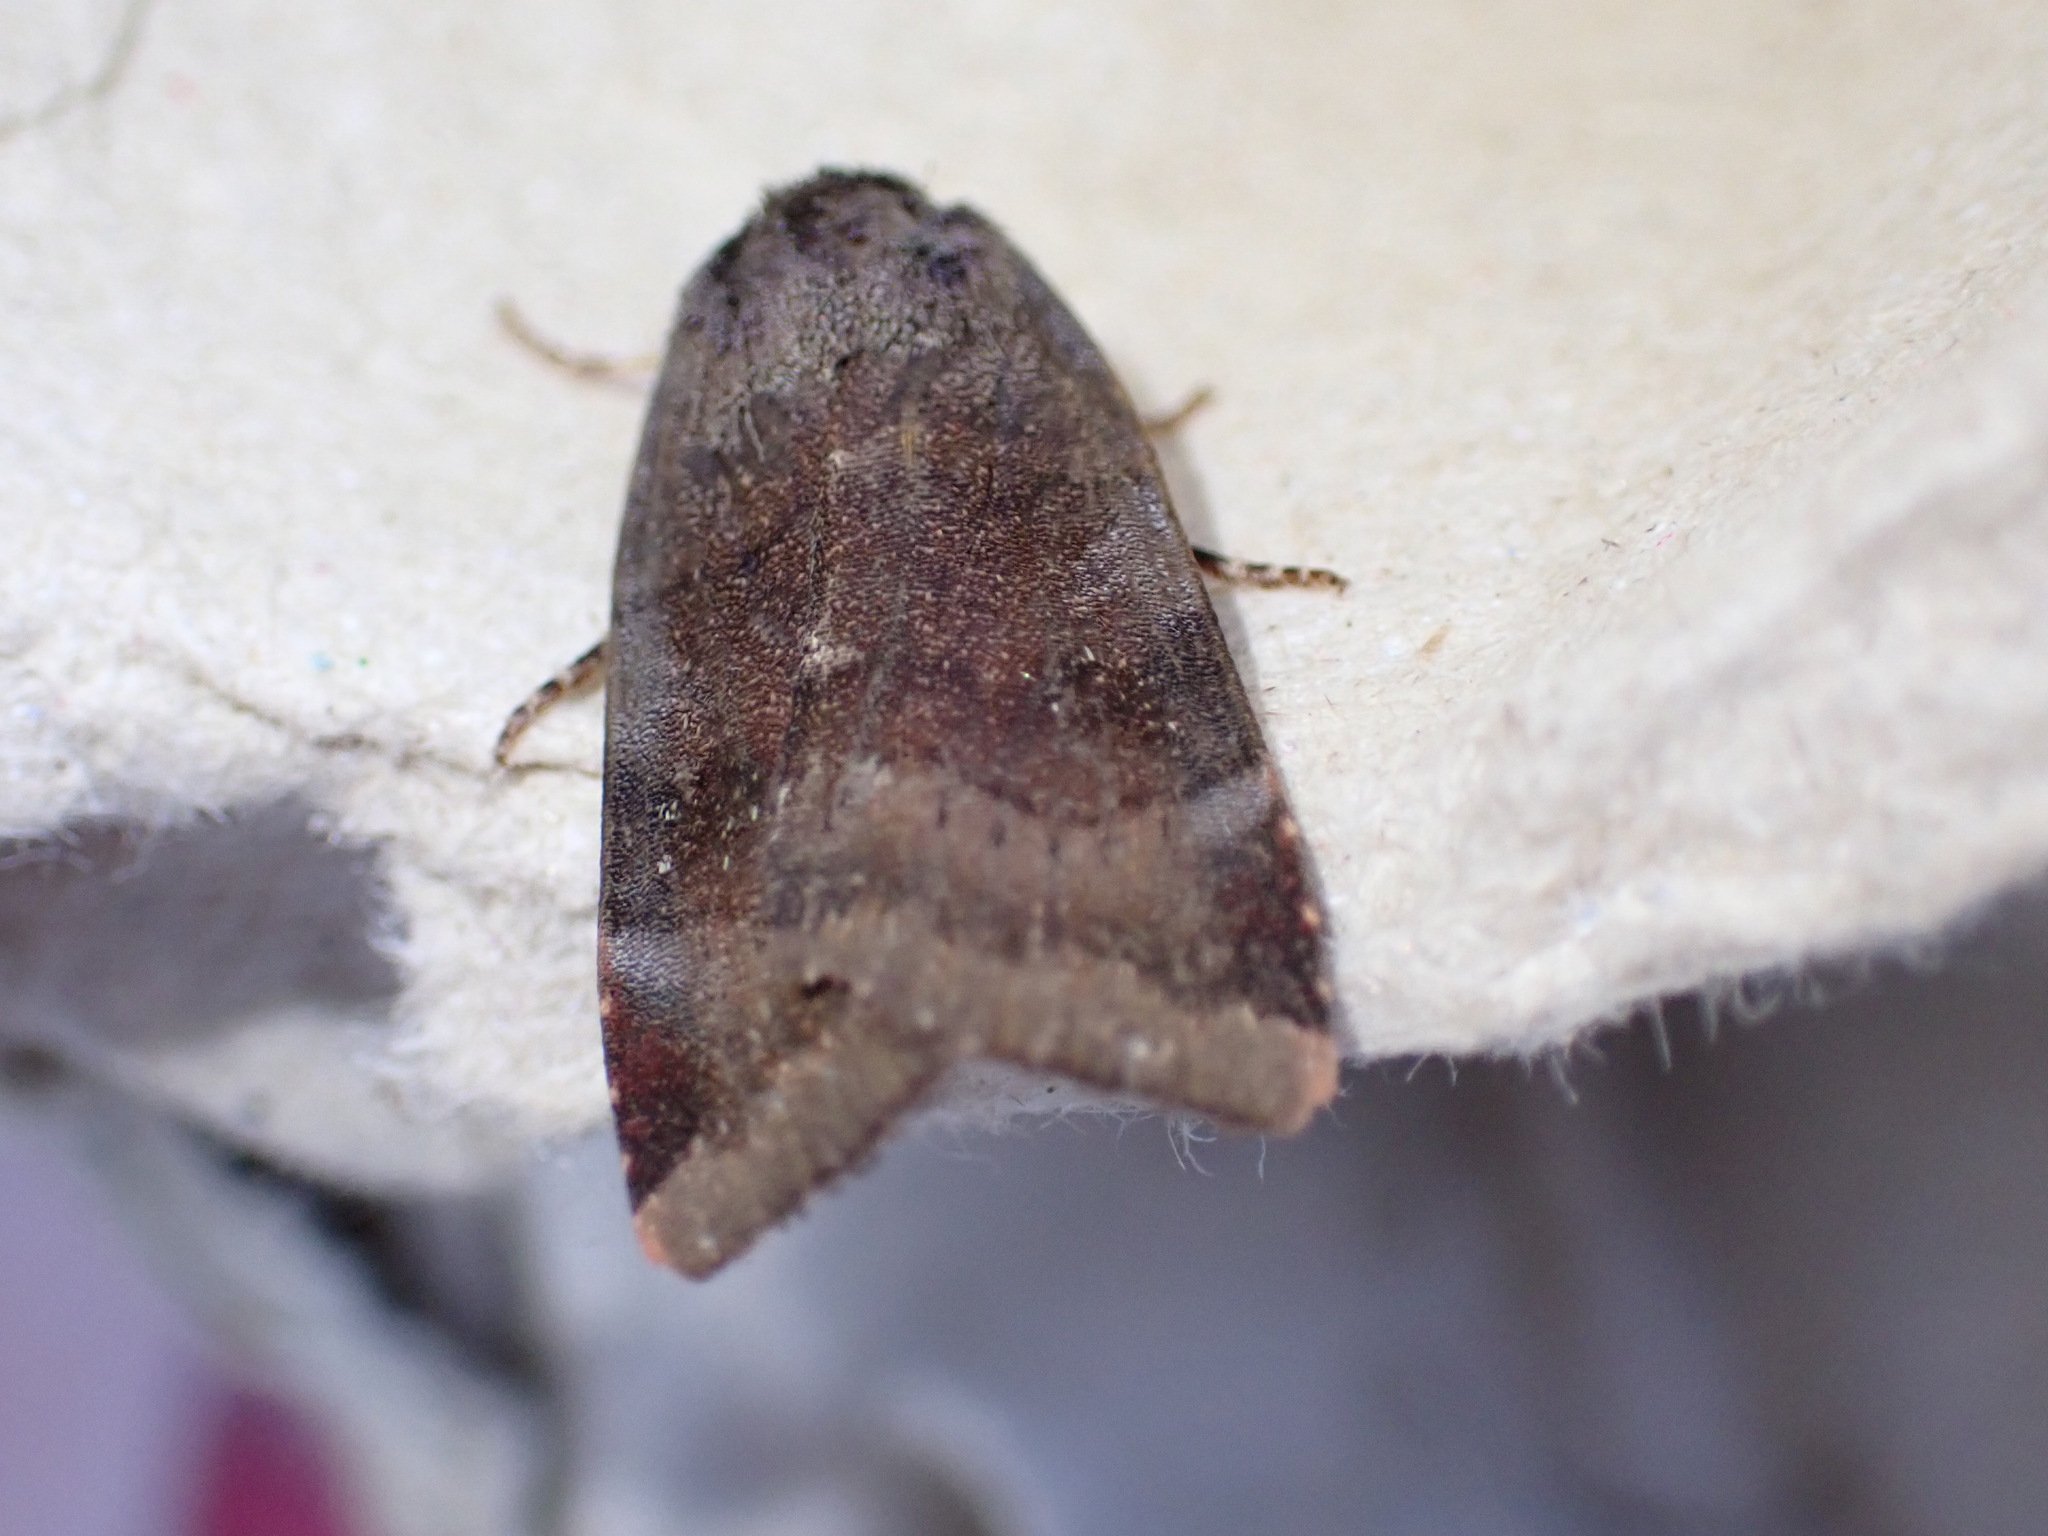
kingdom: Animalia
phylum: Arthropoda
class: Insecta
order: Lepidoptera
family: Noctuidae
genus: Noctua
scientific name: Noctua janthe
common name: Lesser broad-bordered yellow underwing
